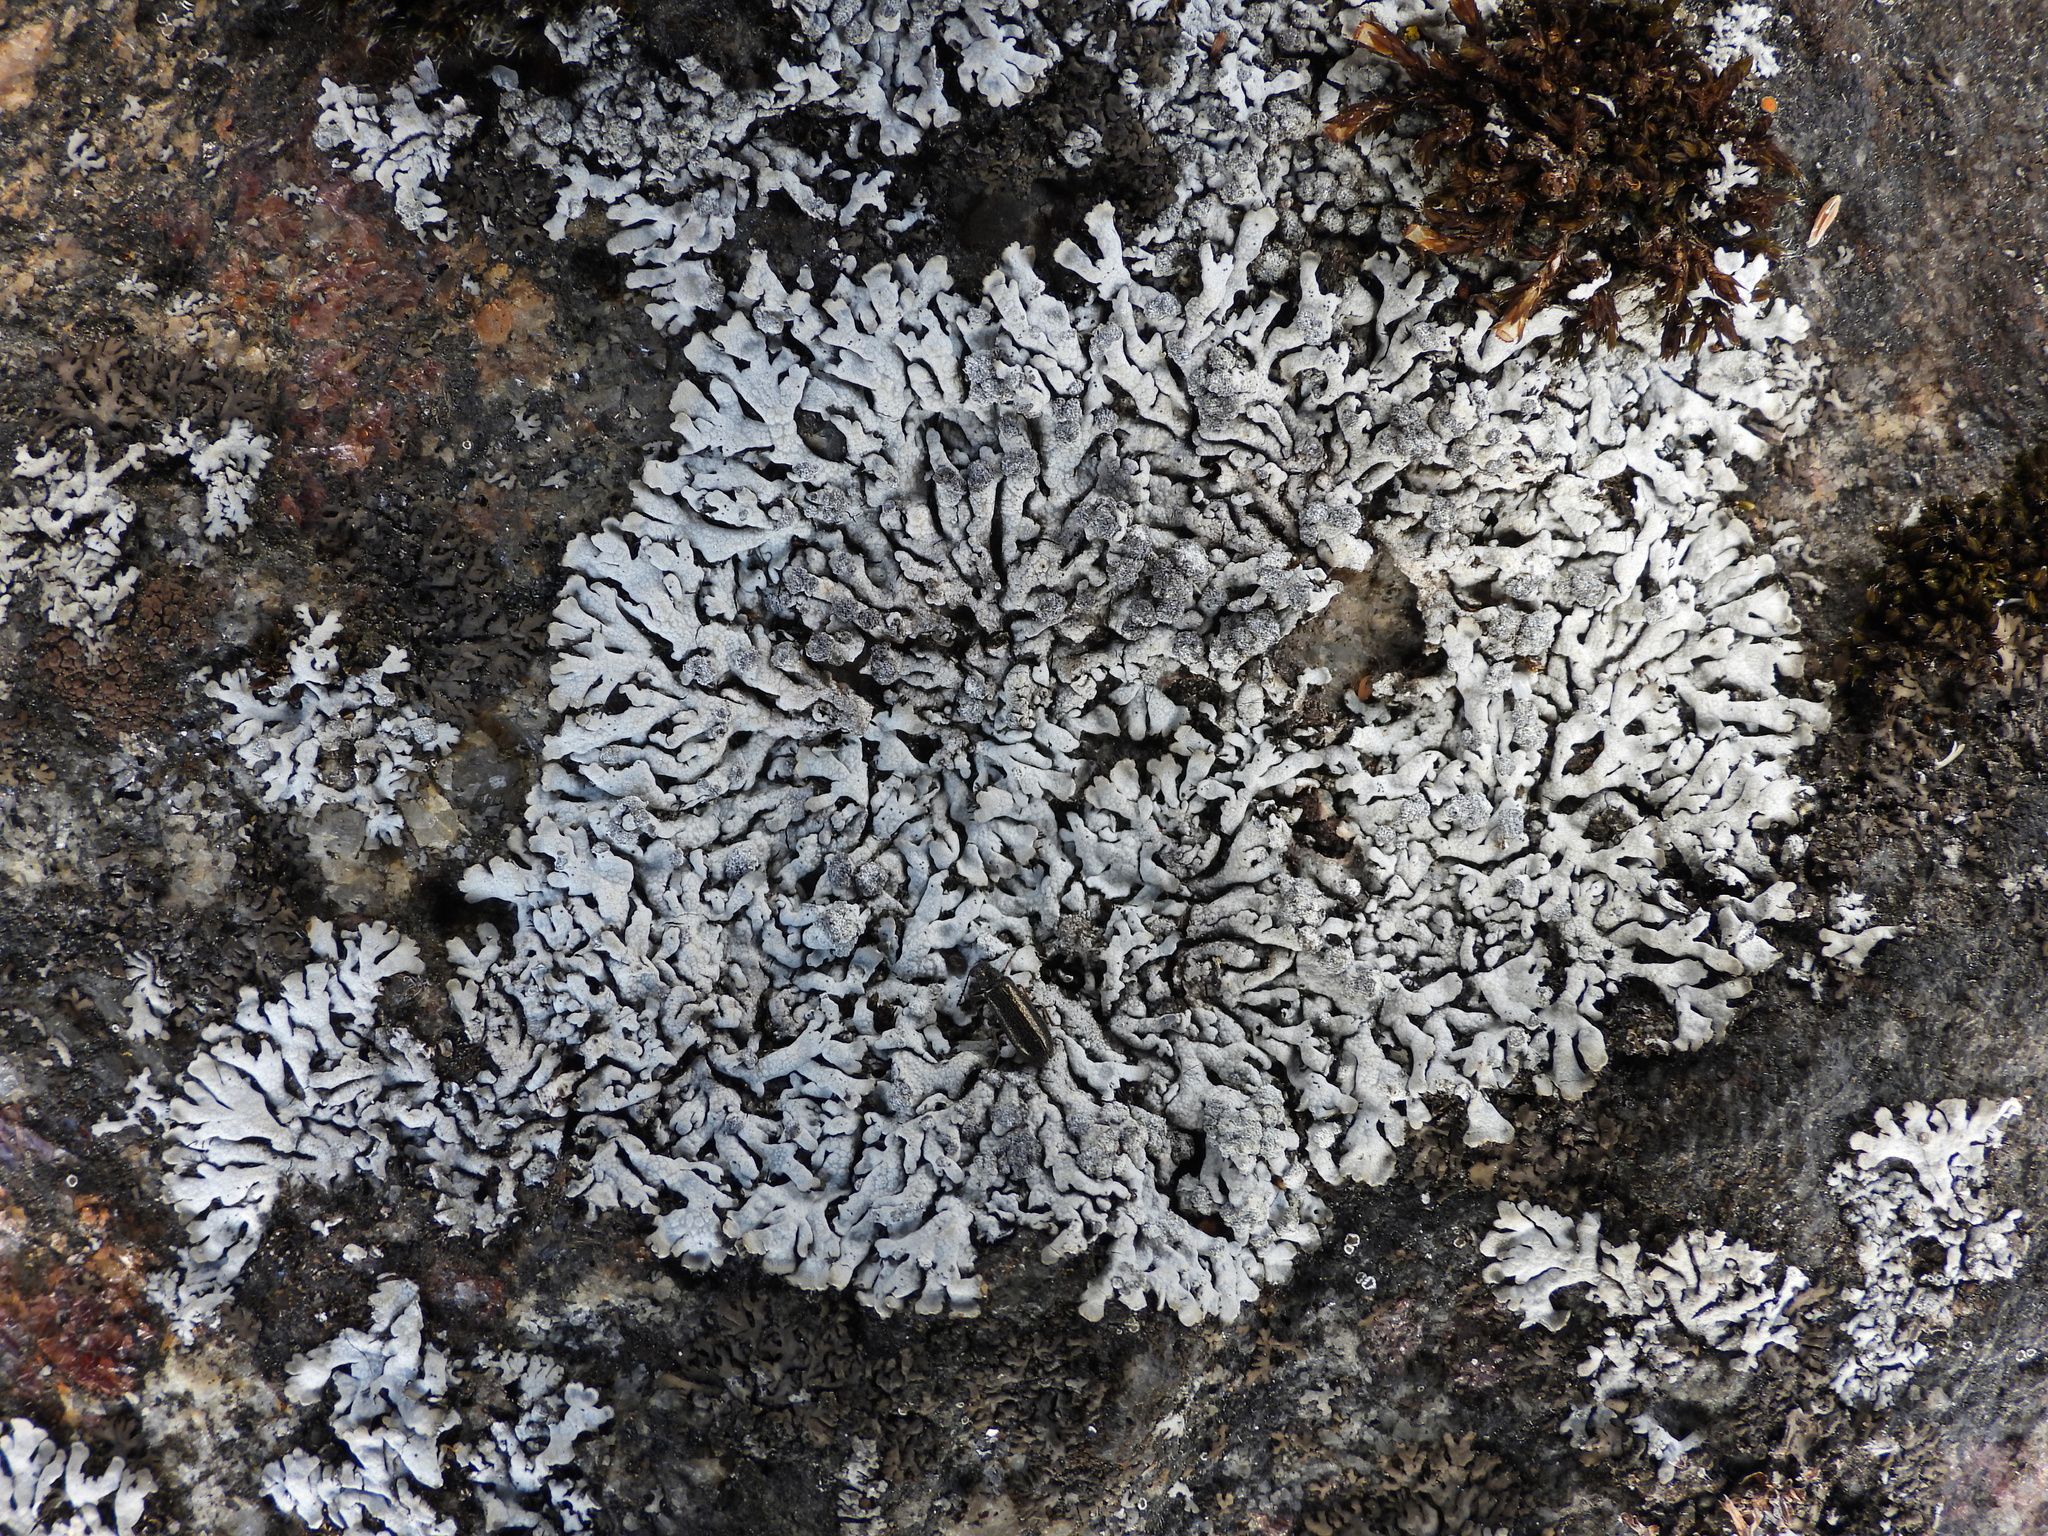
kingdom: Fungi
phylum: Ascomycota
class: Lecanoromycetes
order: Caliciales
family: Physciaceae
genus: Physcia
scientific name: Physcia caesia
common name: Blue-gray rosette lichen
